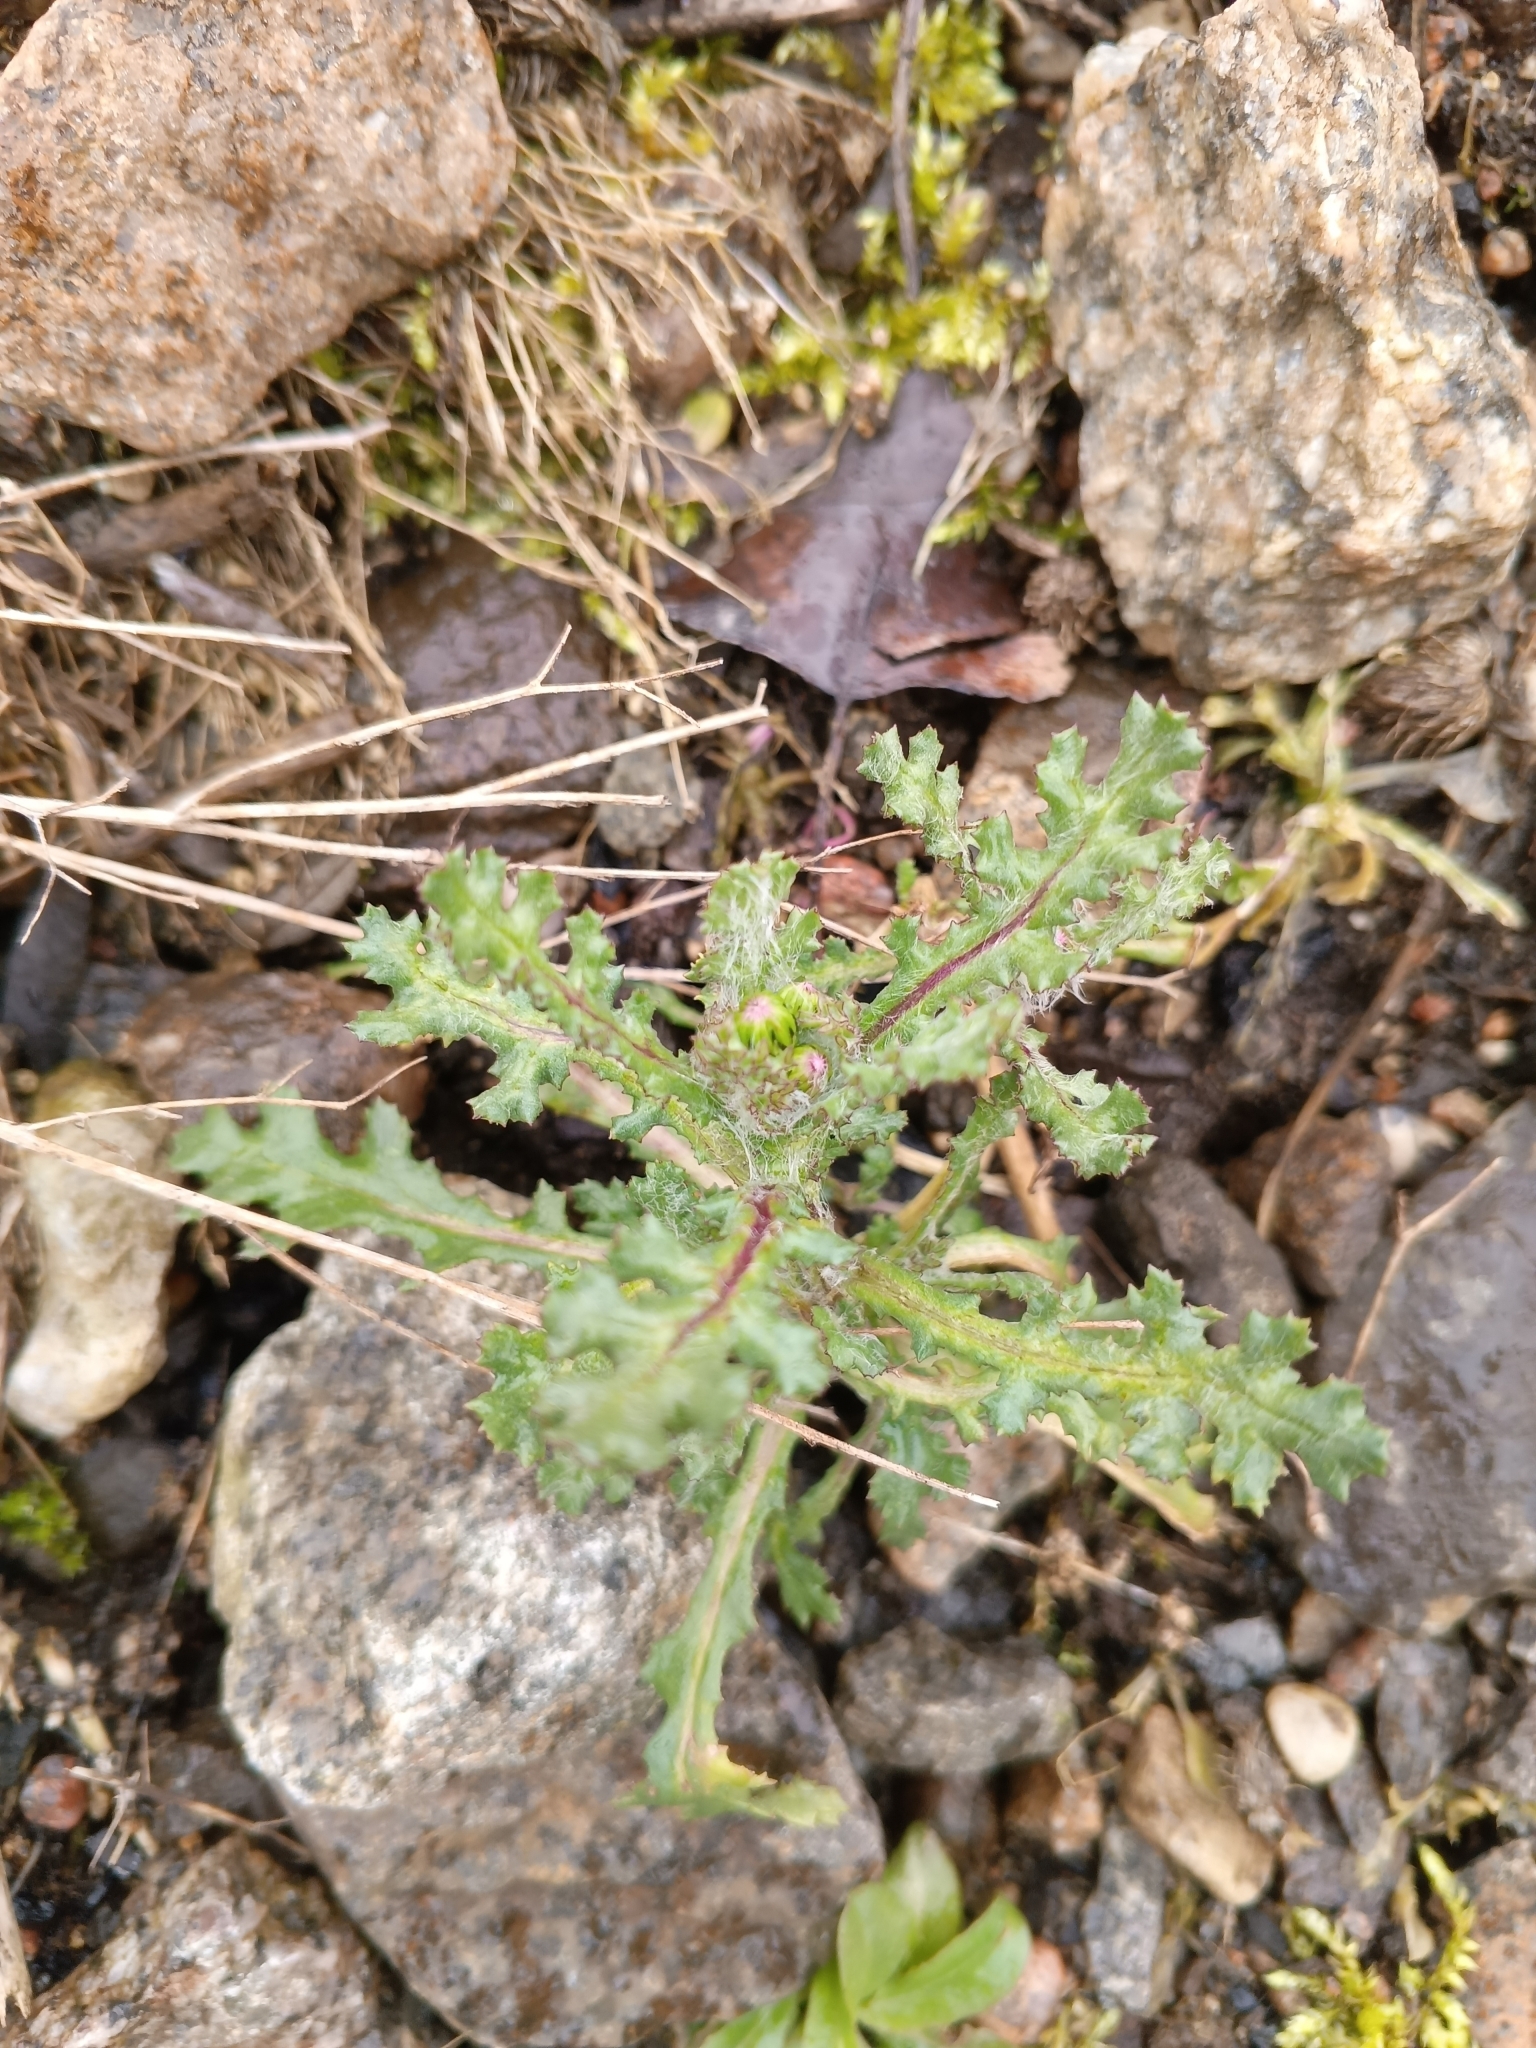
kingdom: Plantae
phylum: Tracheophyta
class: Magnoliopsida
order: Asterales
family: Asteraceae
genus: Senecio
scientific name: Senecio vulgaris
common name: Old-man-in-the-spring
